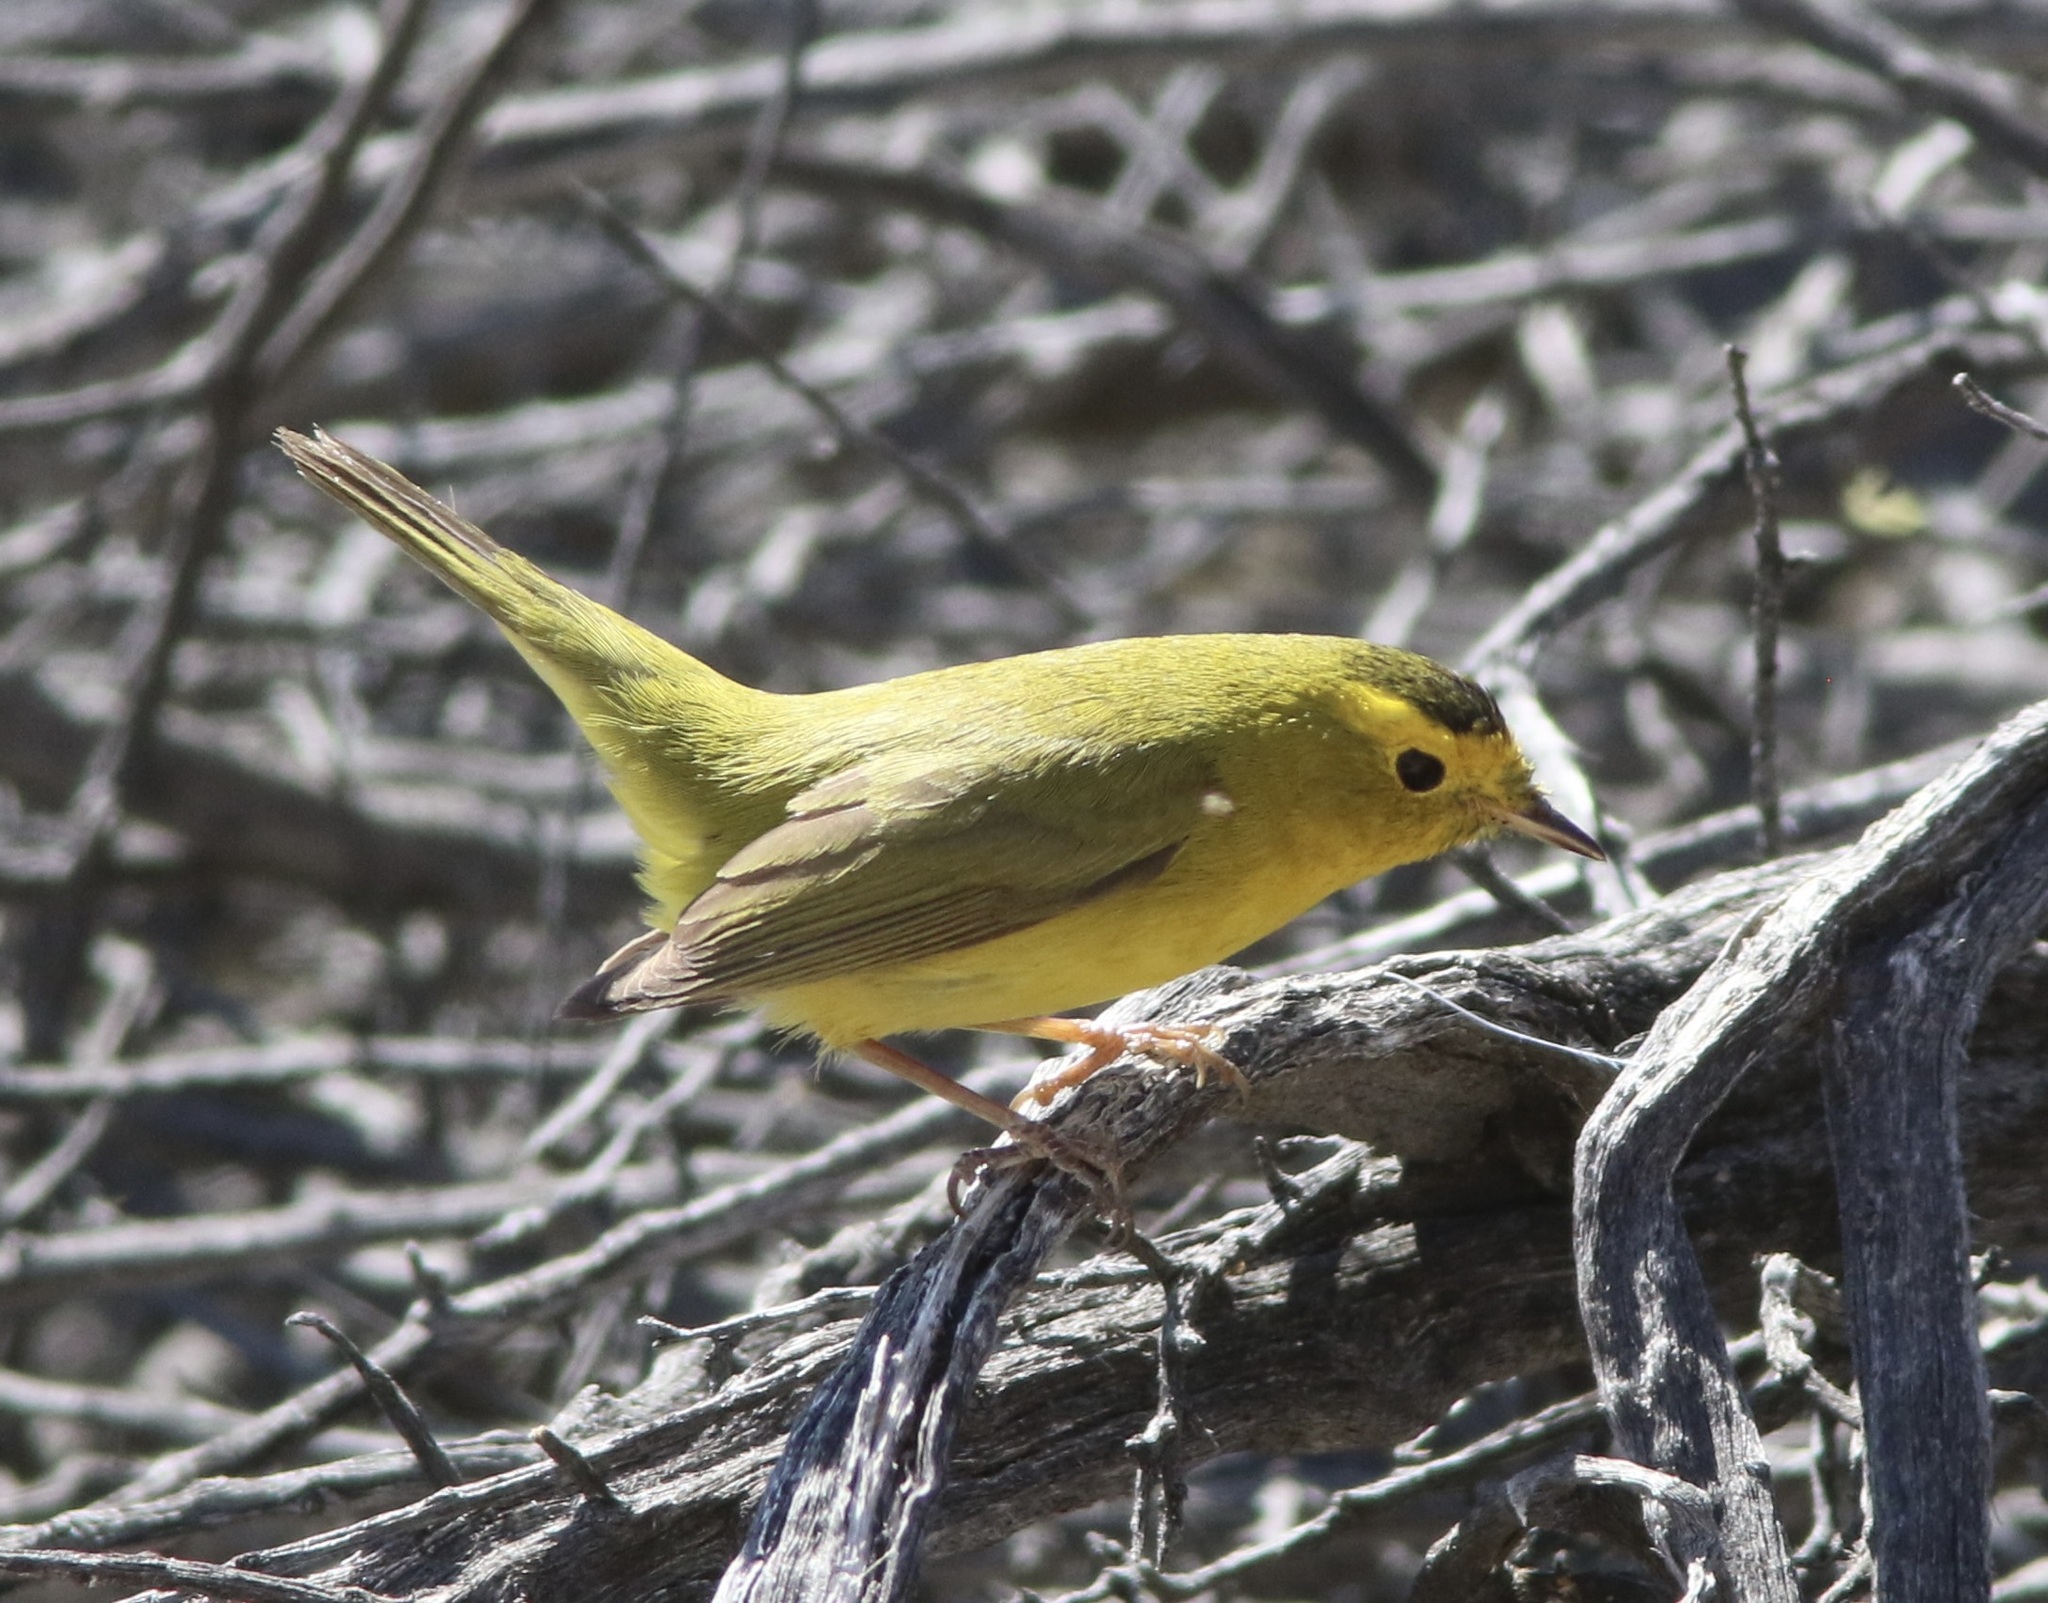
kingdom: Animalia
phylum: Chordata
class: Aves
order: Passeriformes
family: Parulidae
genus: Cardellina
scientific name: Cardellina pusilla
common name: Wilson's warbler
